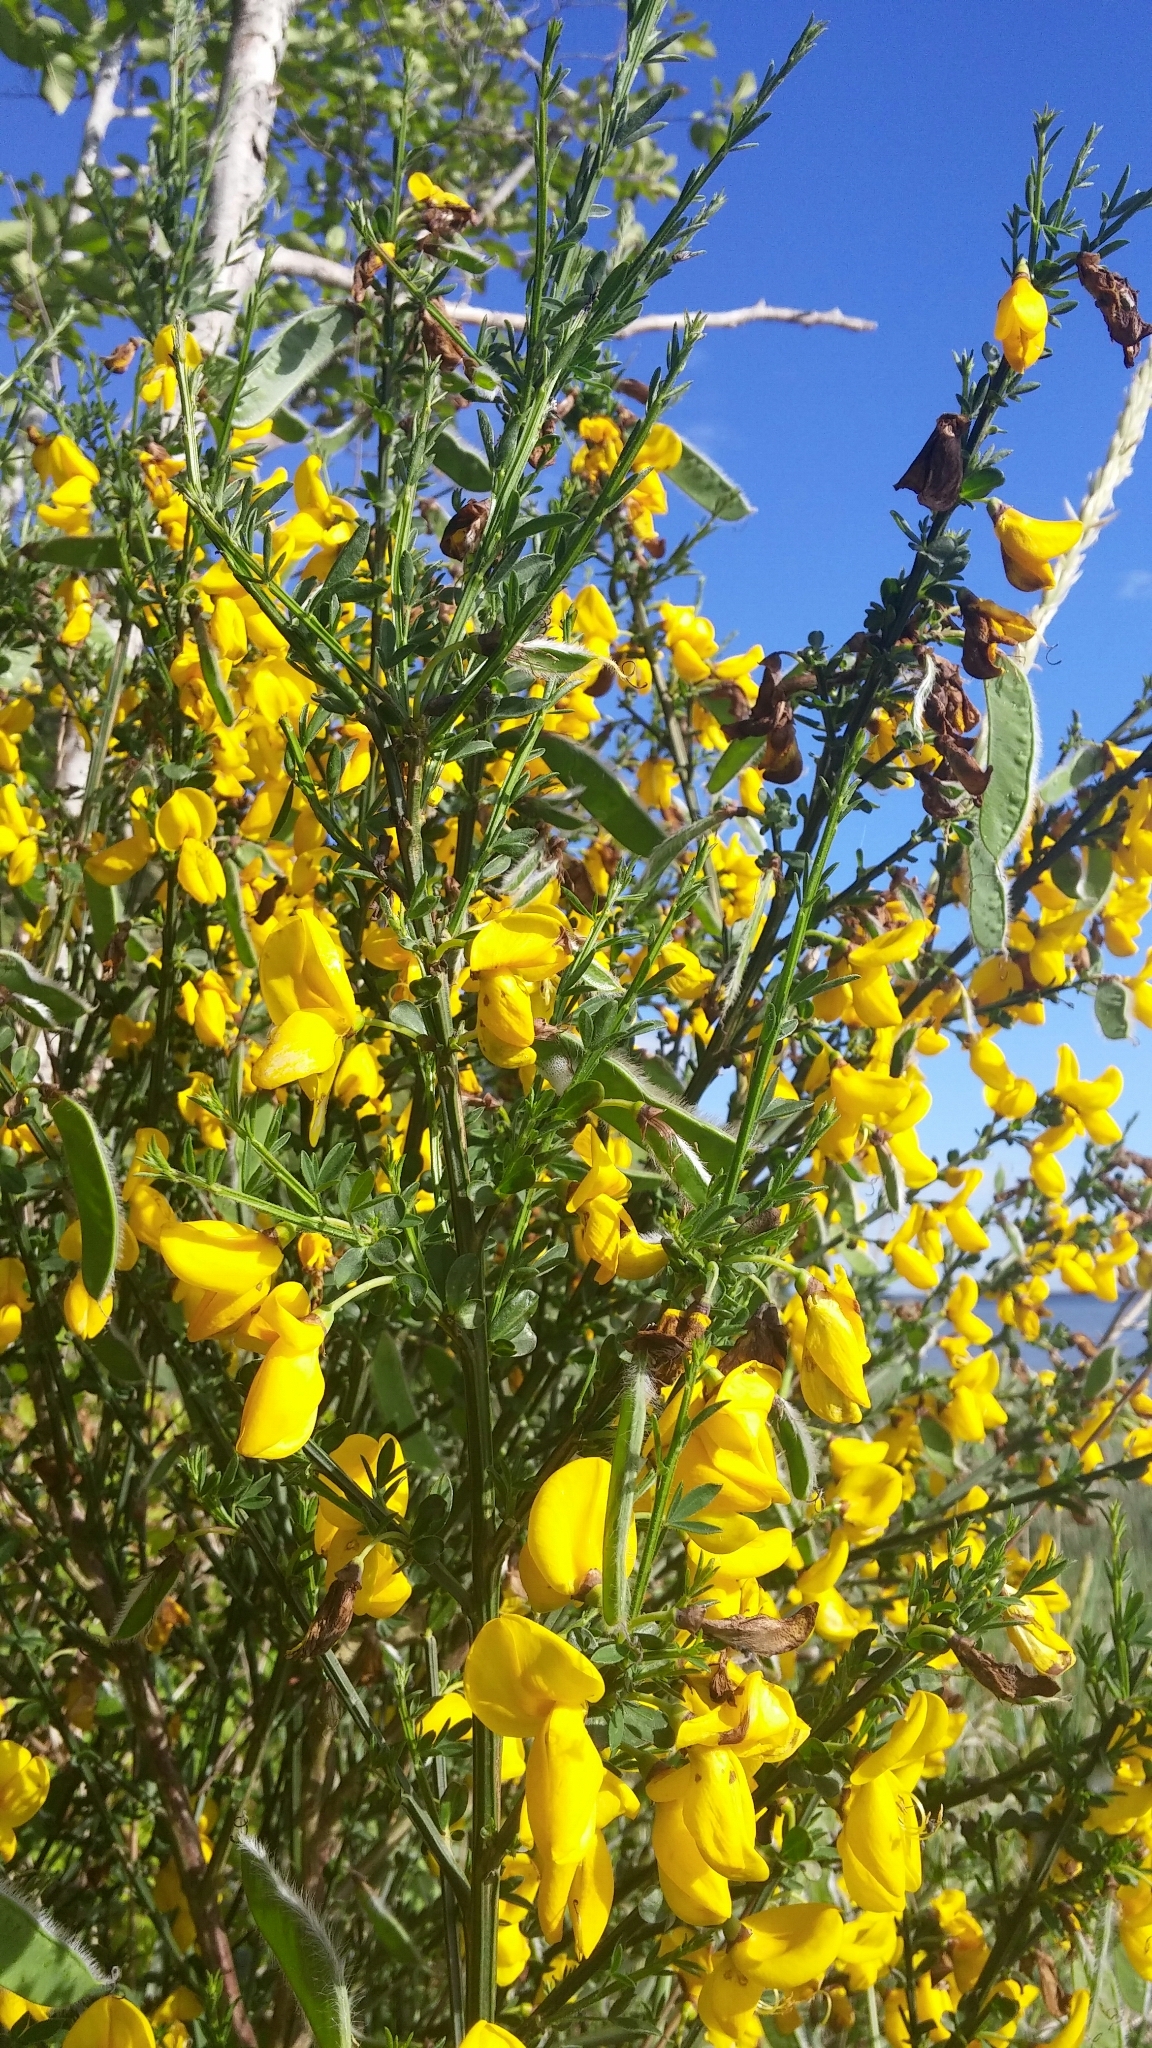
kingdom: Plantae
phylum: Tracheophyta
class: Magnoliopsida
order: Fabales
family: Fabaceae
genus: Cytisus
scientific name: Cytisus scoparius
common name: Scotch broom
